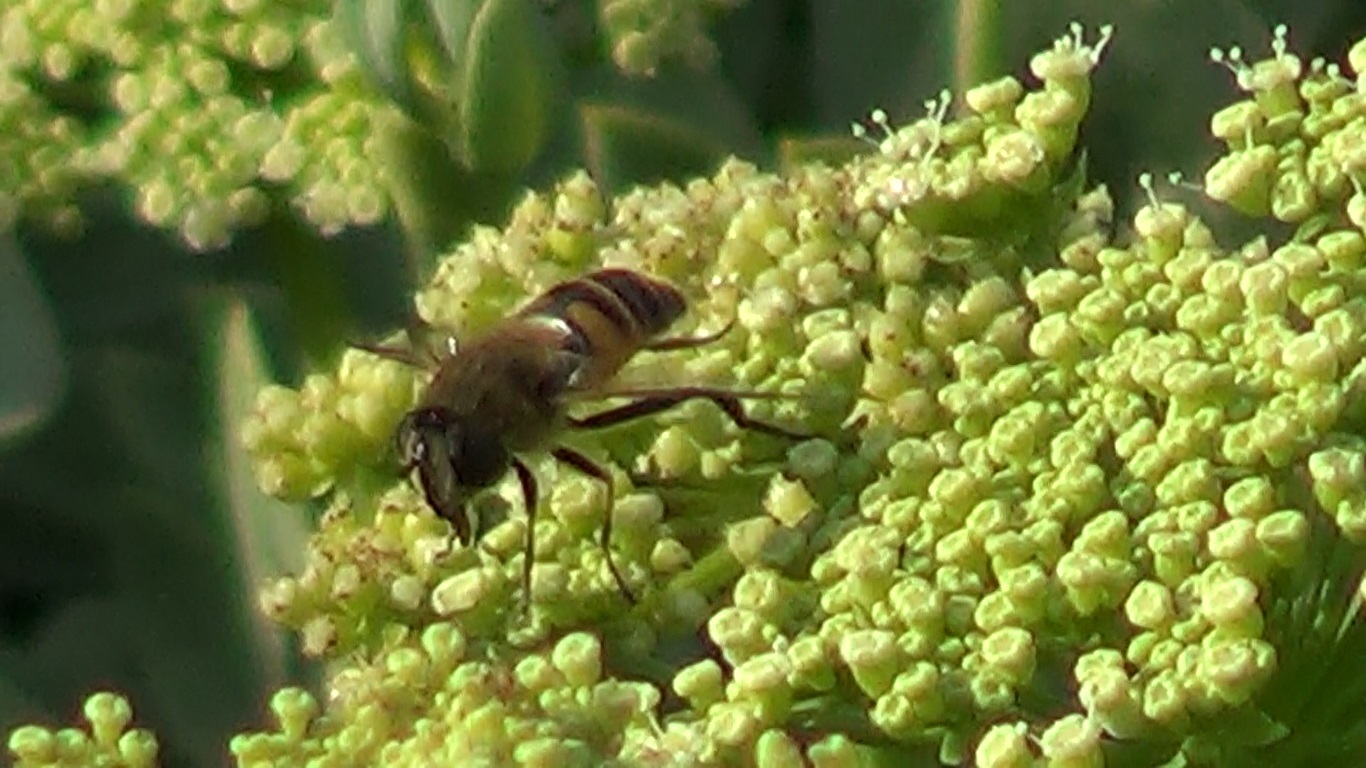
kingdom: Animalia
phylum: Arthropoda
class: Insecta
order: Diptera
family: Syrphidae
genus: Eristalis
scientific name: Eristalis tenax
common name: Drone fly
